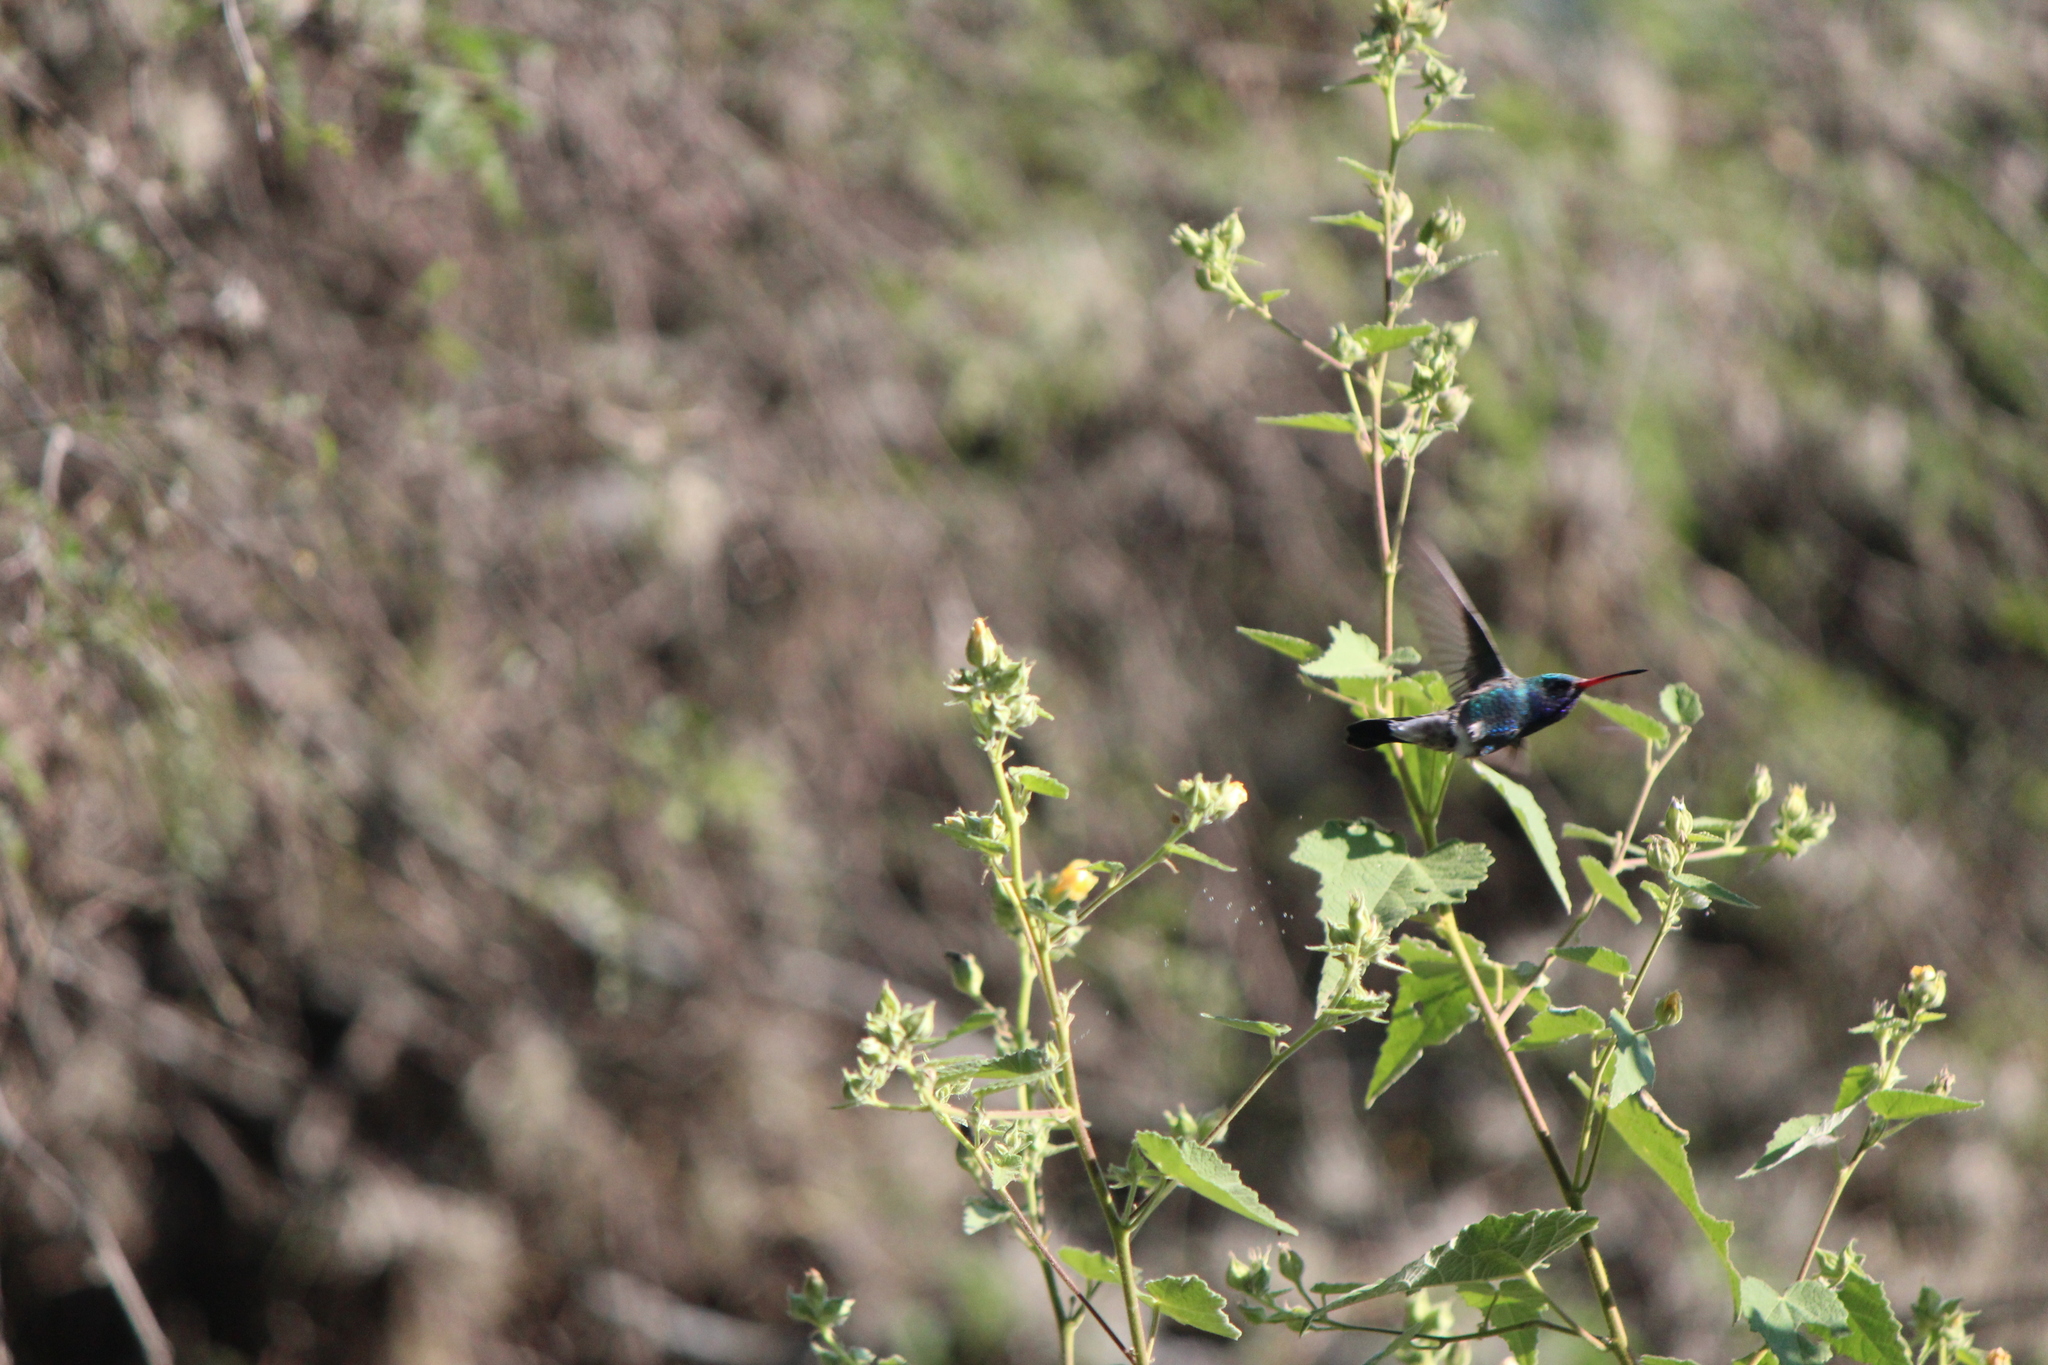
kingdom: Animalia
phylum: Chordata
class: Aves
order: Apodiformes
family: Trochilidae
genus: Cynanthus
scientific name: Cynanthus latirostris
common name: Broad-billed hummingbird
